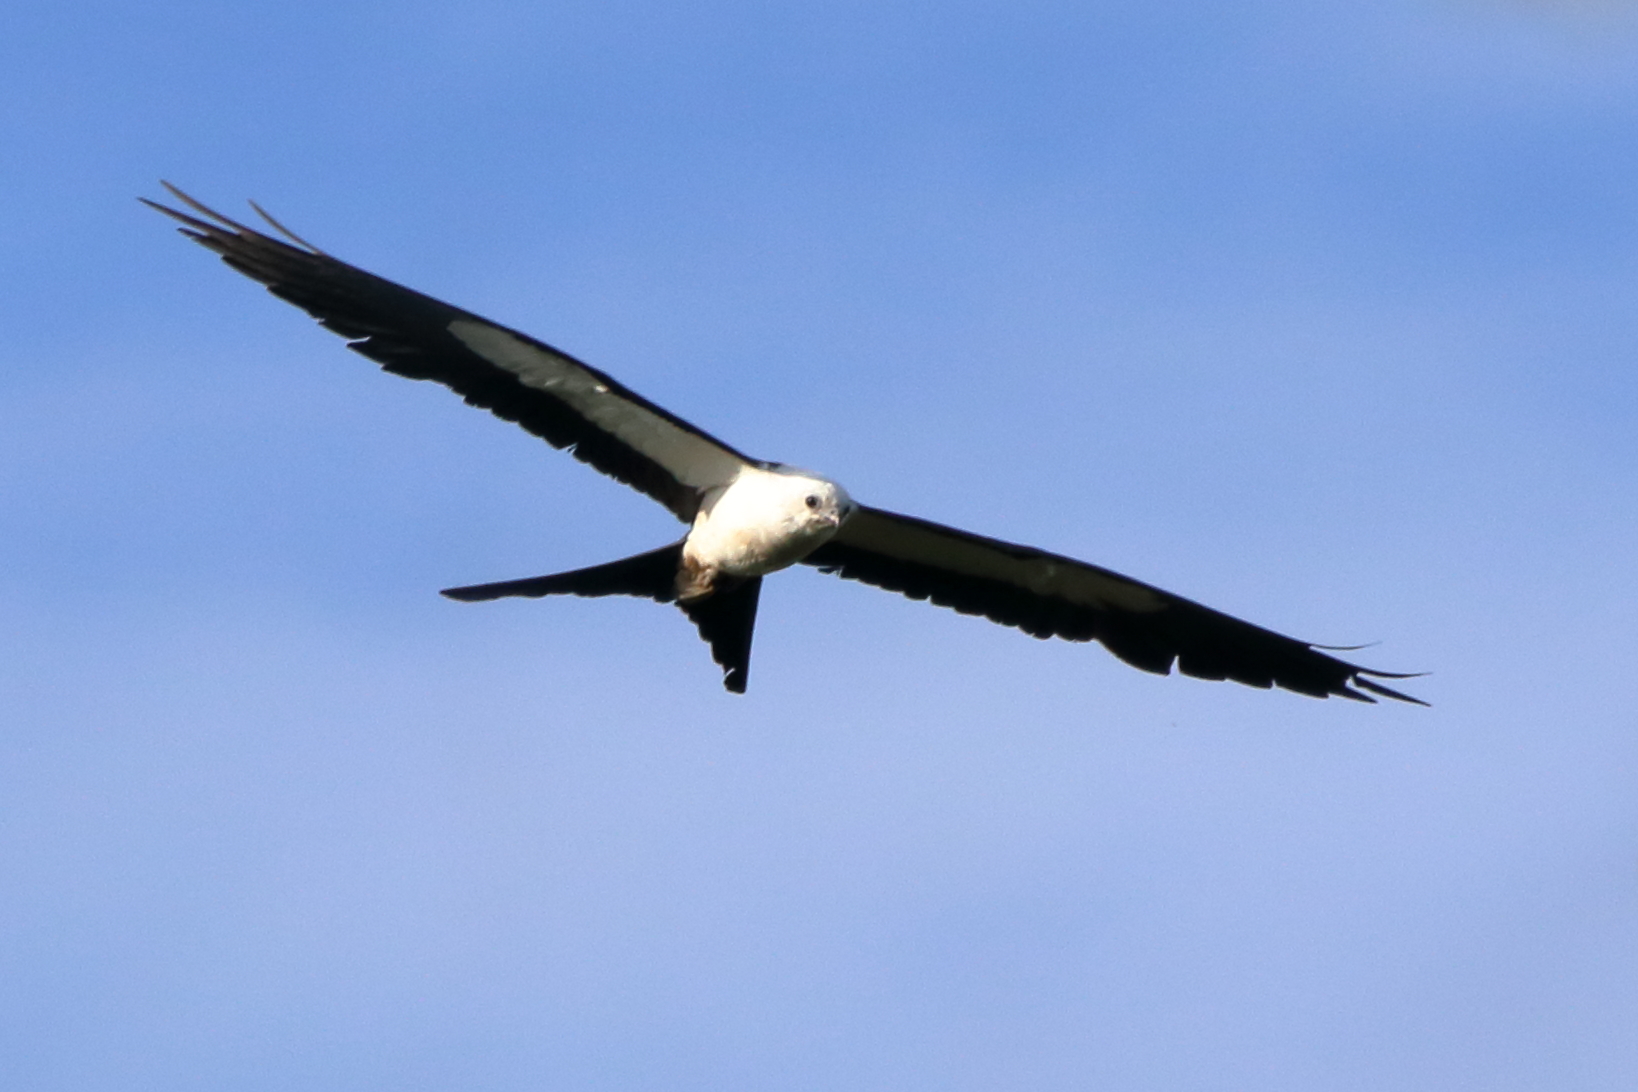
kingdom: Animalia
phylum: Chordata
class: Aves
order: Accipitriformes
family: Accipitridae
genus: Elanoides
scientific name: Elanoides forficatus
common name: Swallow-tailed kite
